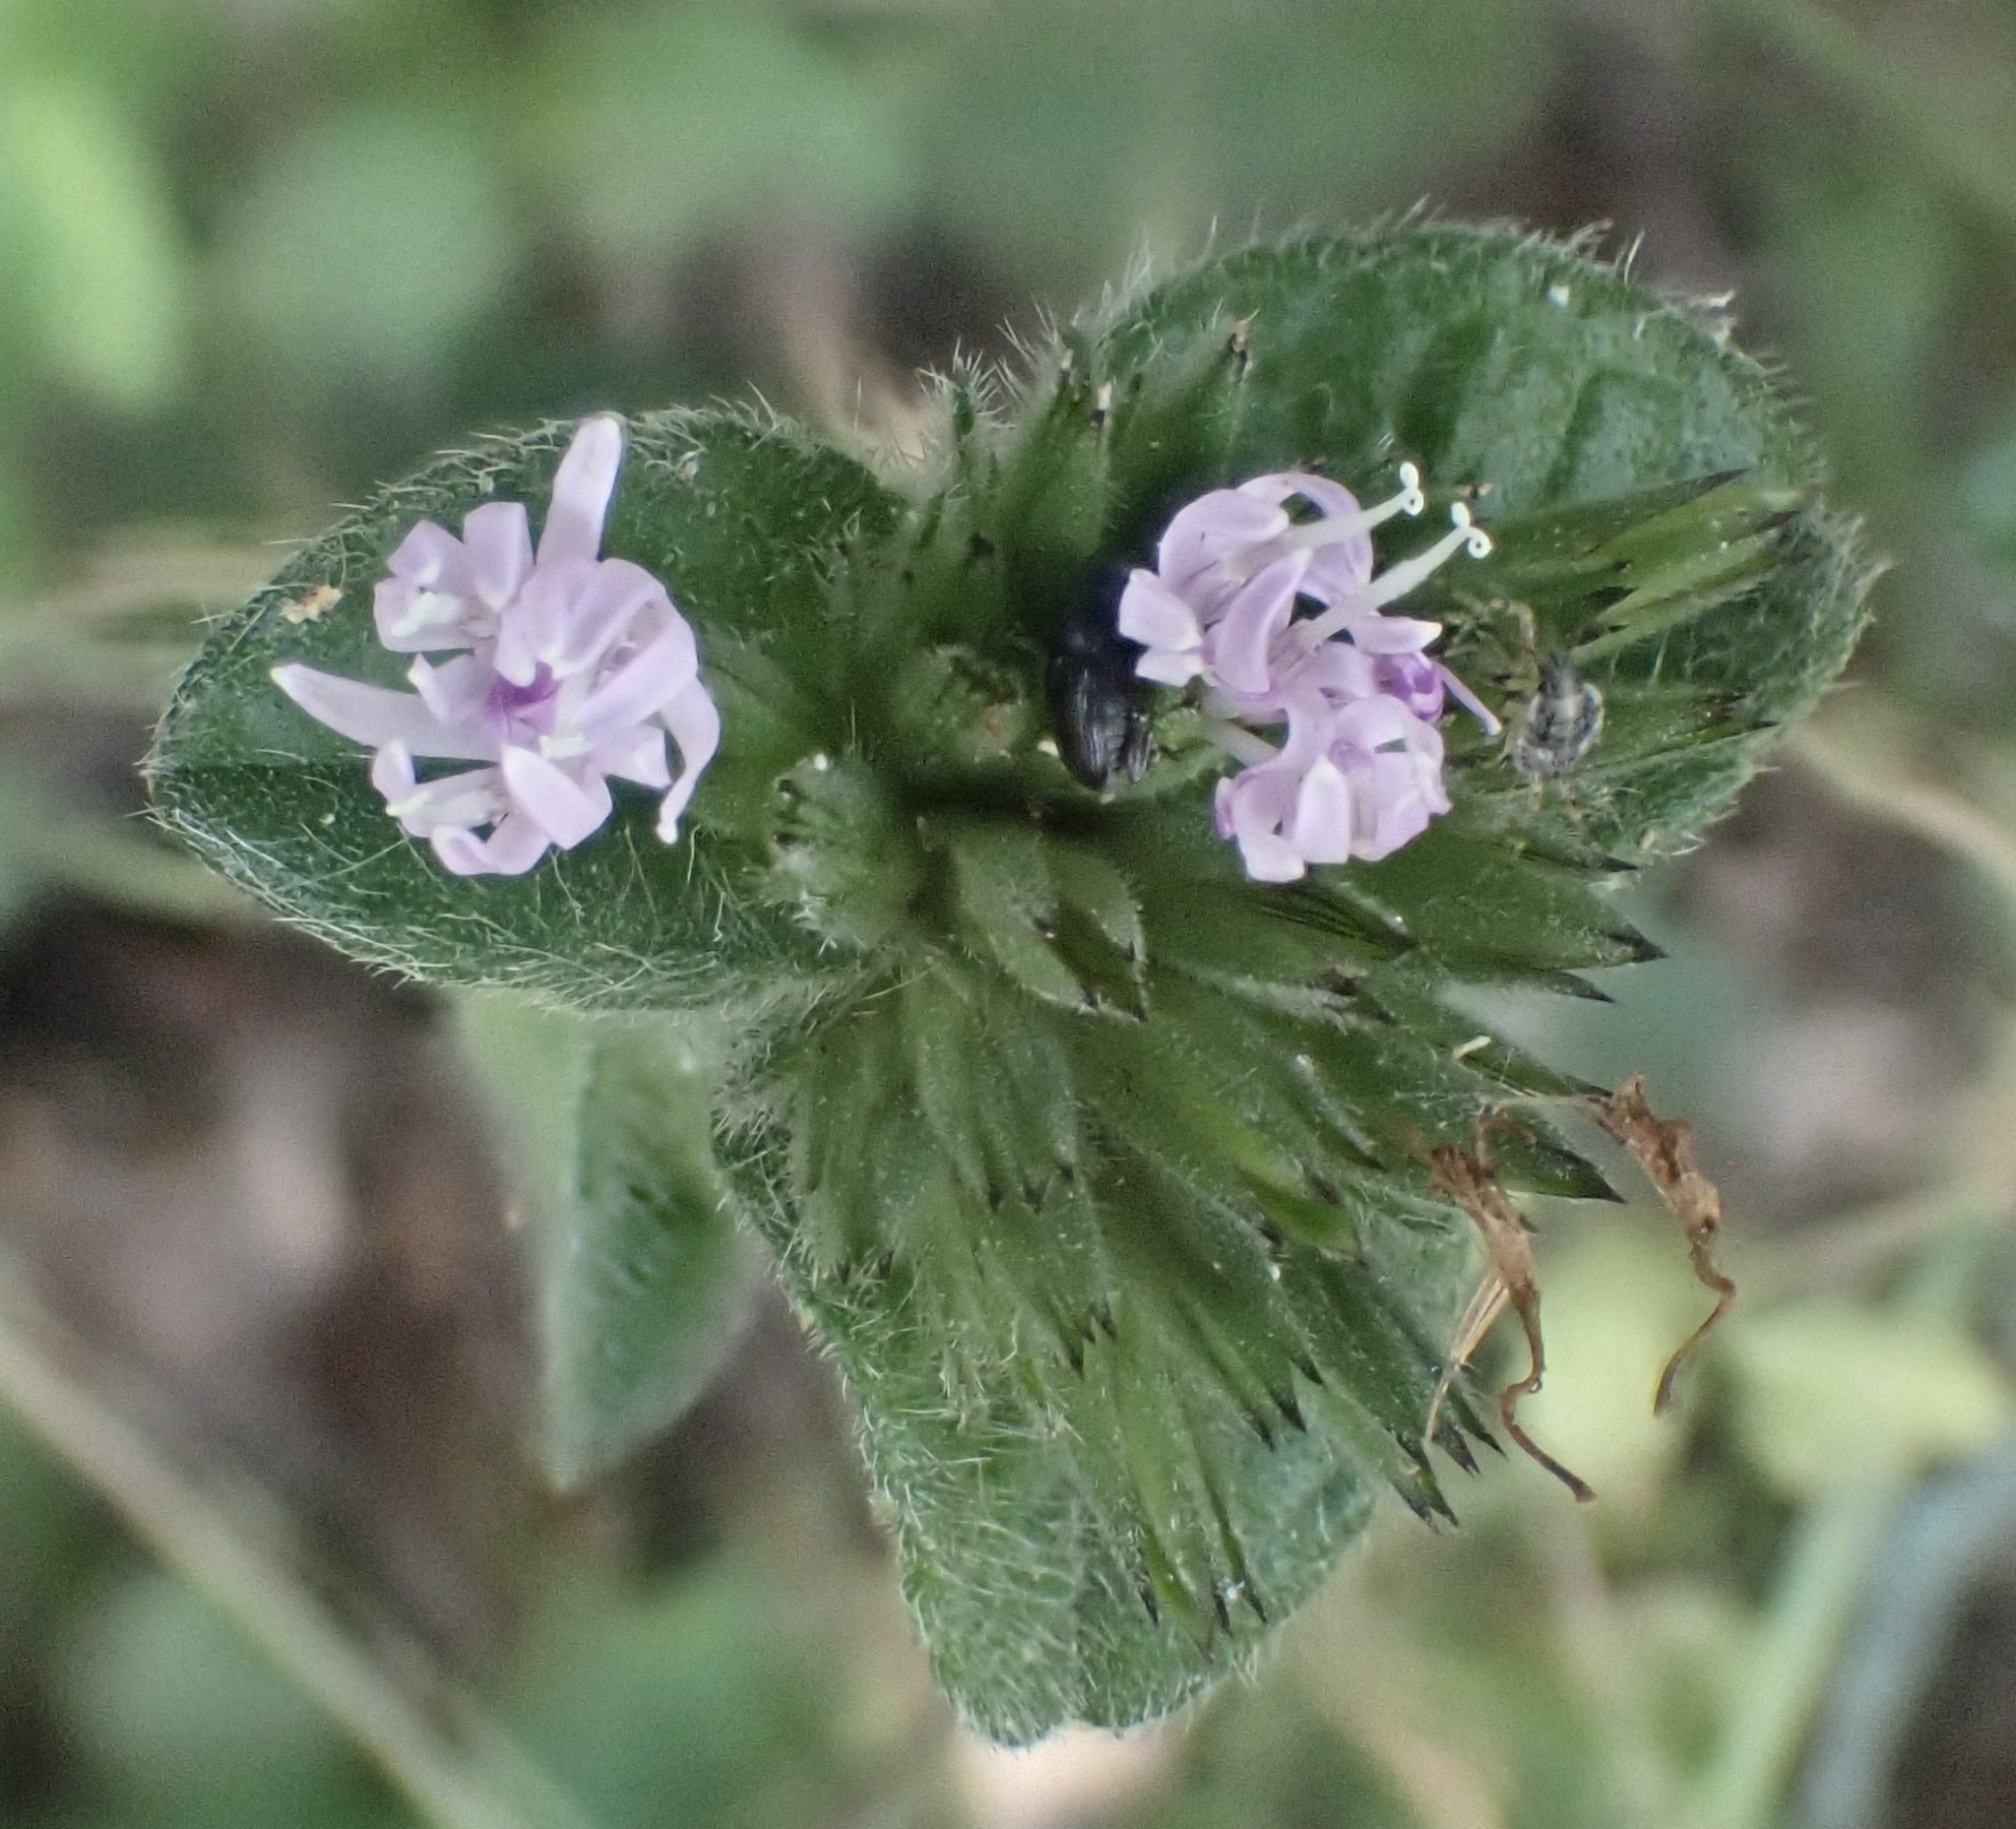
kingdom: Plantae
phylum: Tracheophyta
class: Magnoliopsida
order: Asterales
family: Asteraceae
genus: Elephantopus
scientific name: Elephantopus tomentosus
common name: Tobacco-weed
